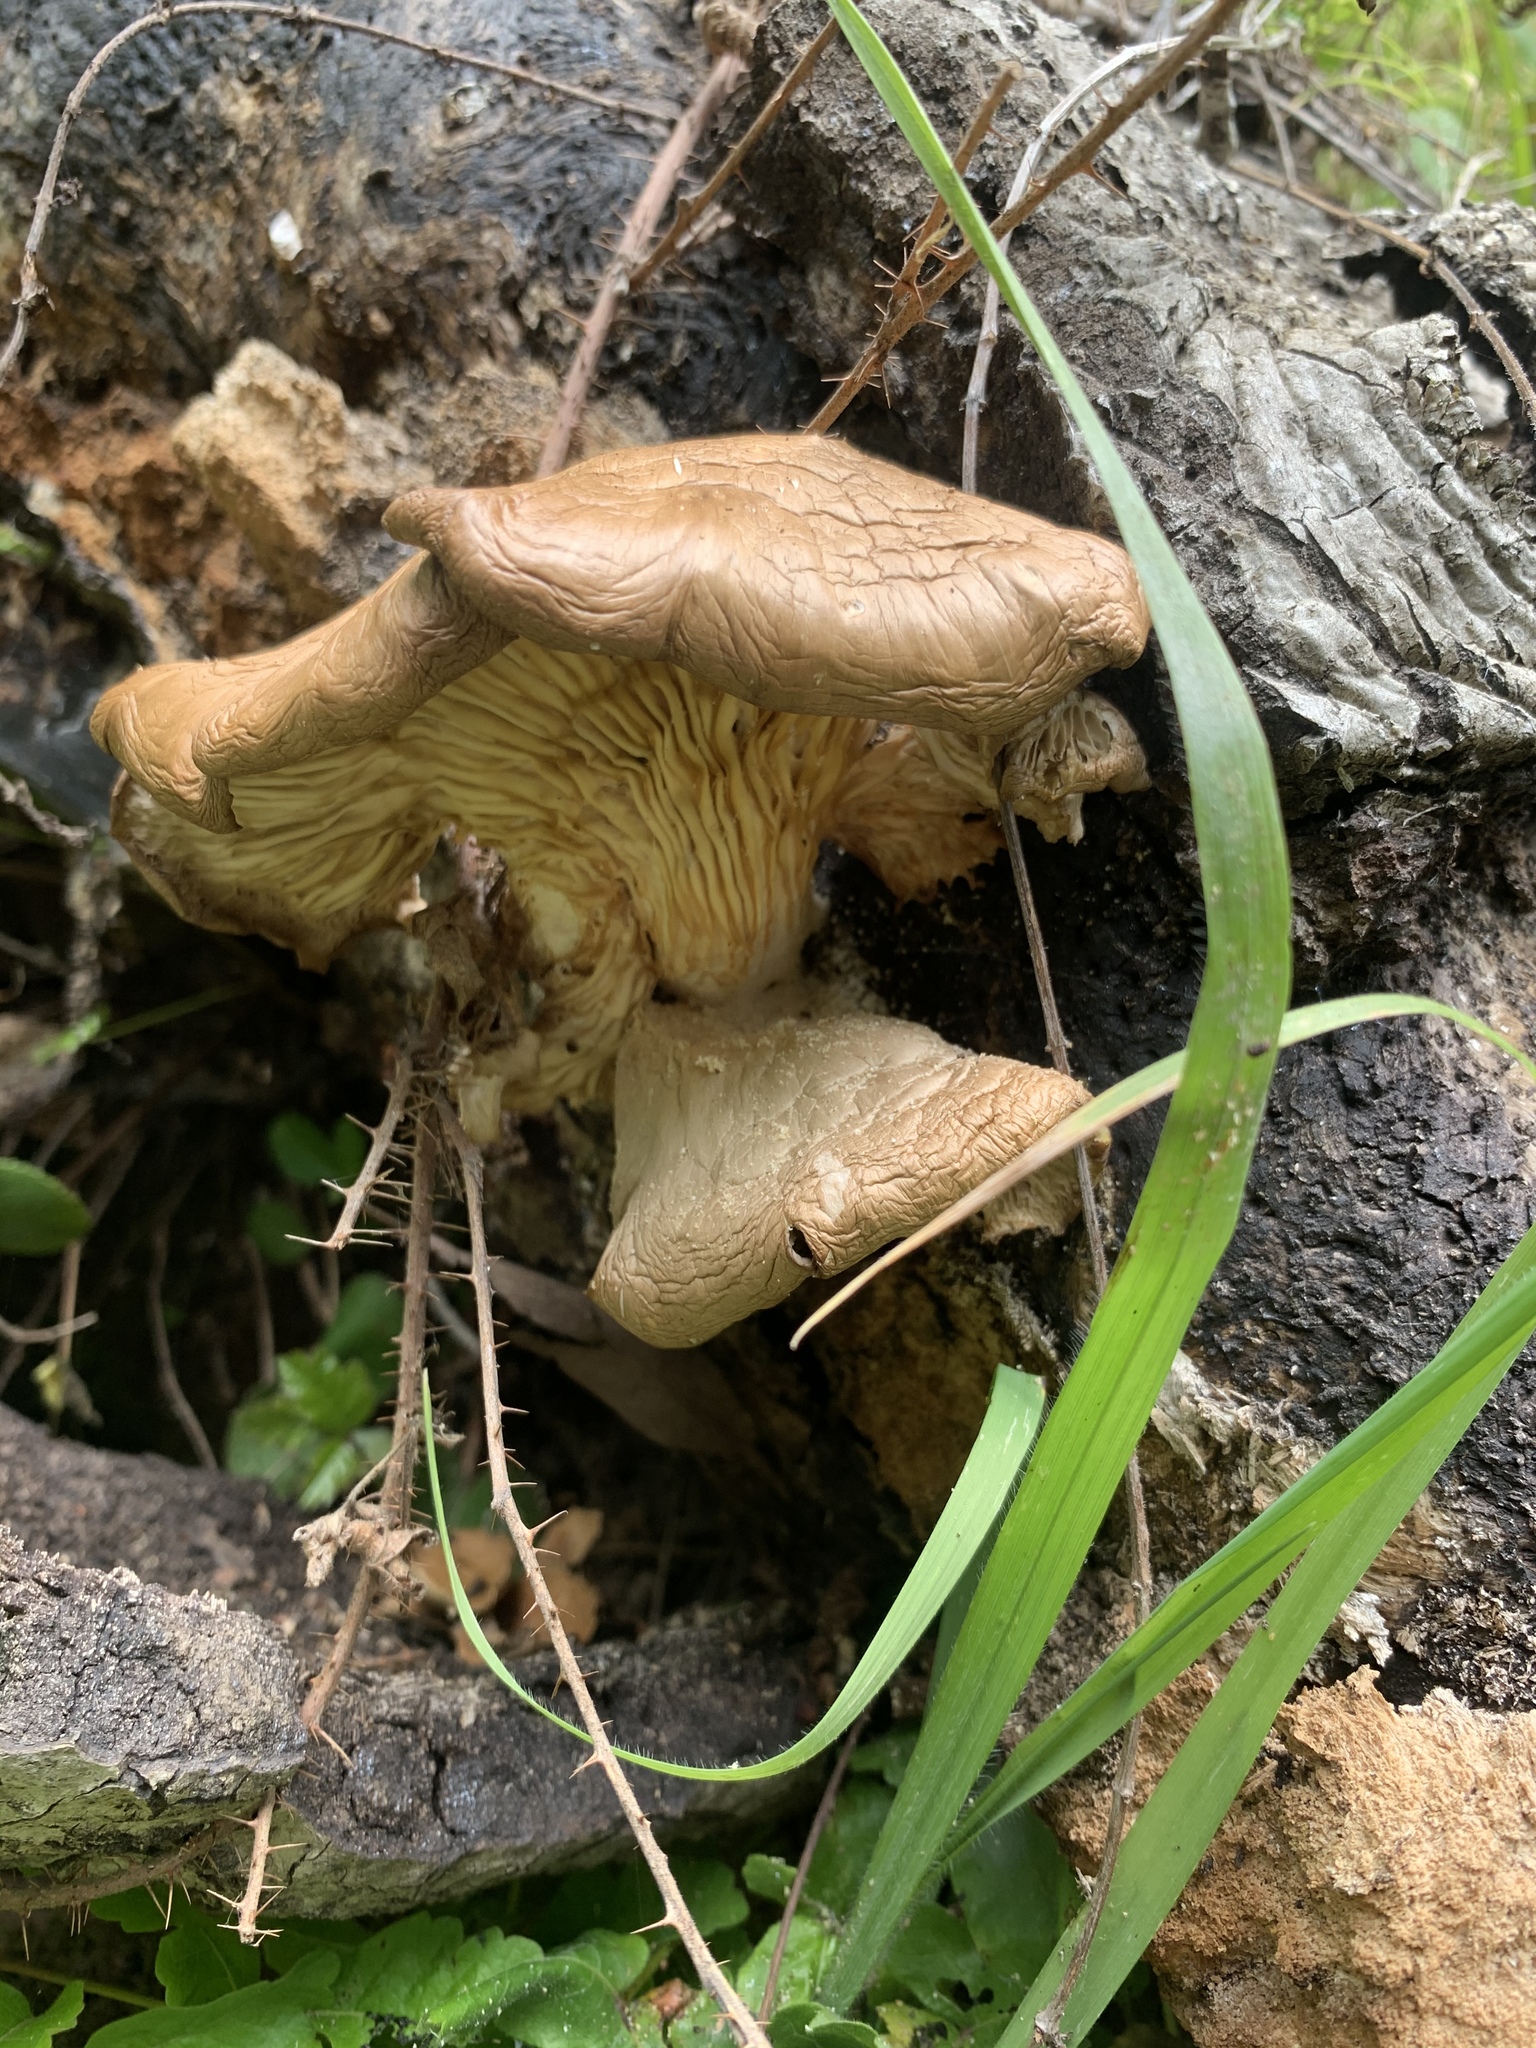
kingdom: Fungi
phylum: Basidiomycota
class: Agaricomycetes
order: Agaricales
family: Pleurotaceae
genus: Pleurotus
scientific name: Pleurotus pulmonarius
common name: Pale oyster
